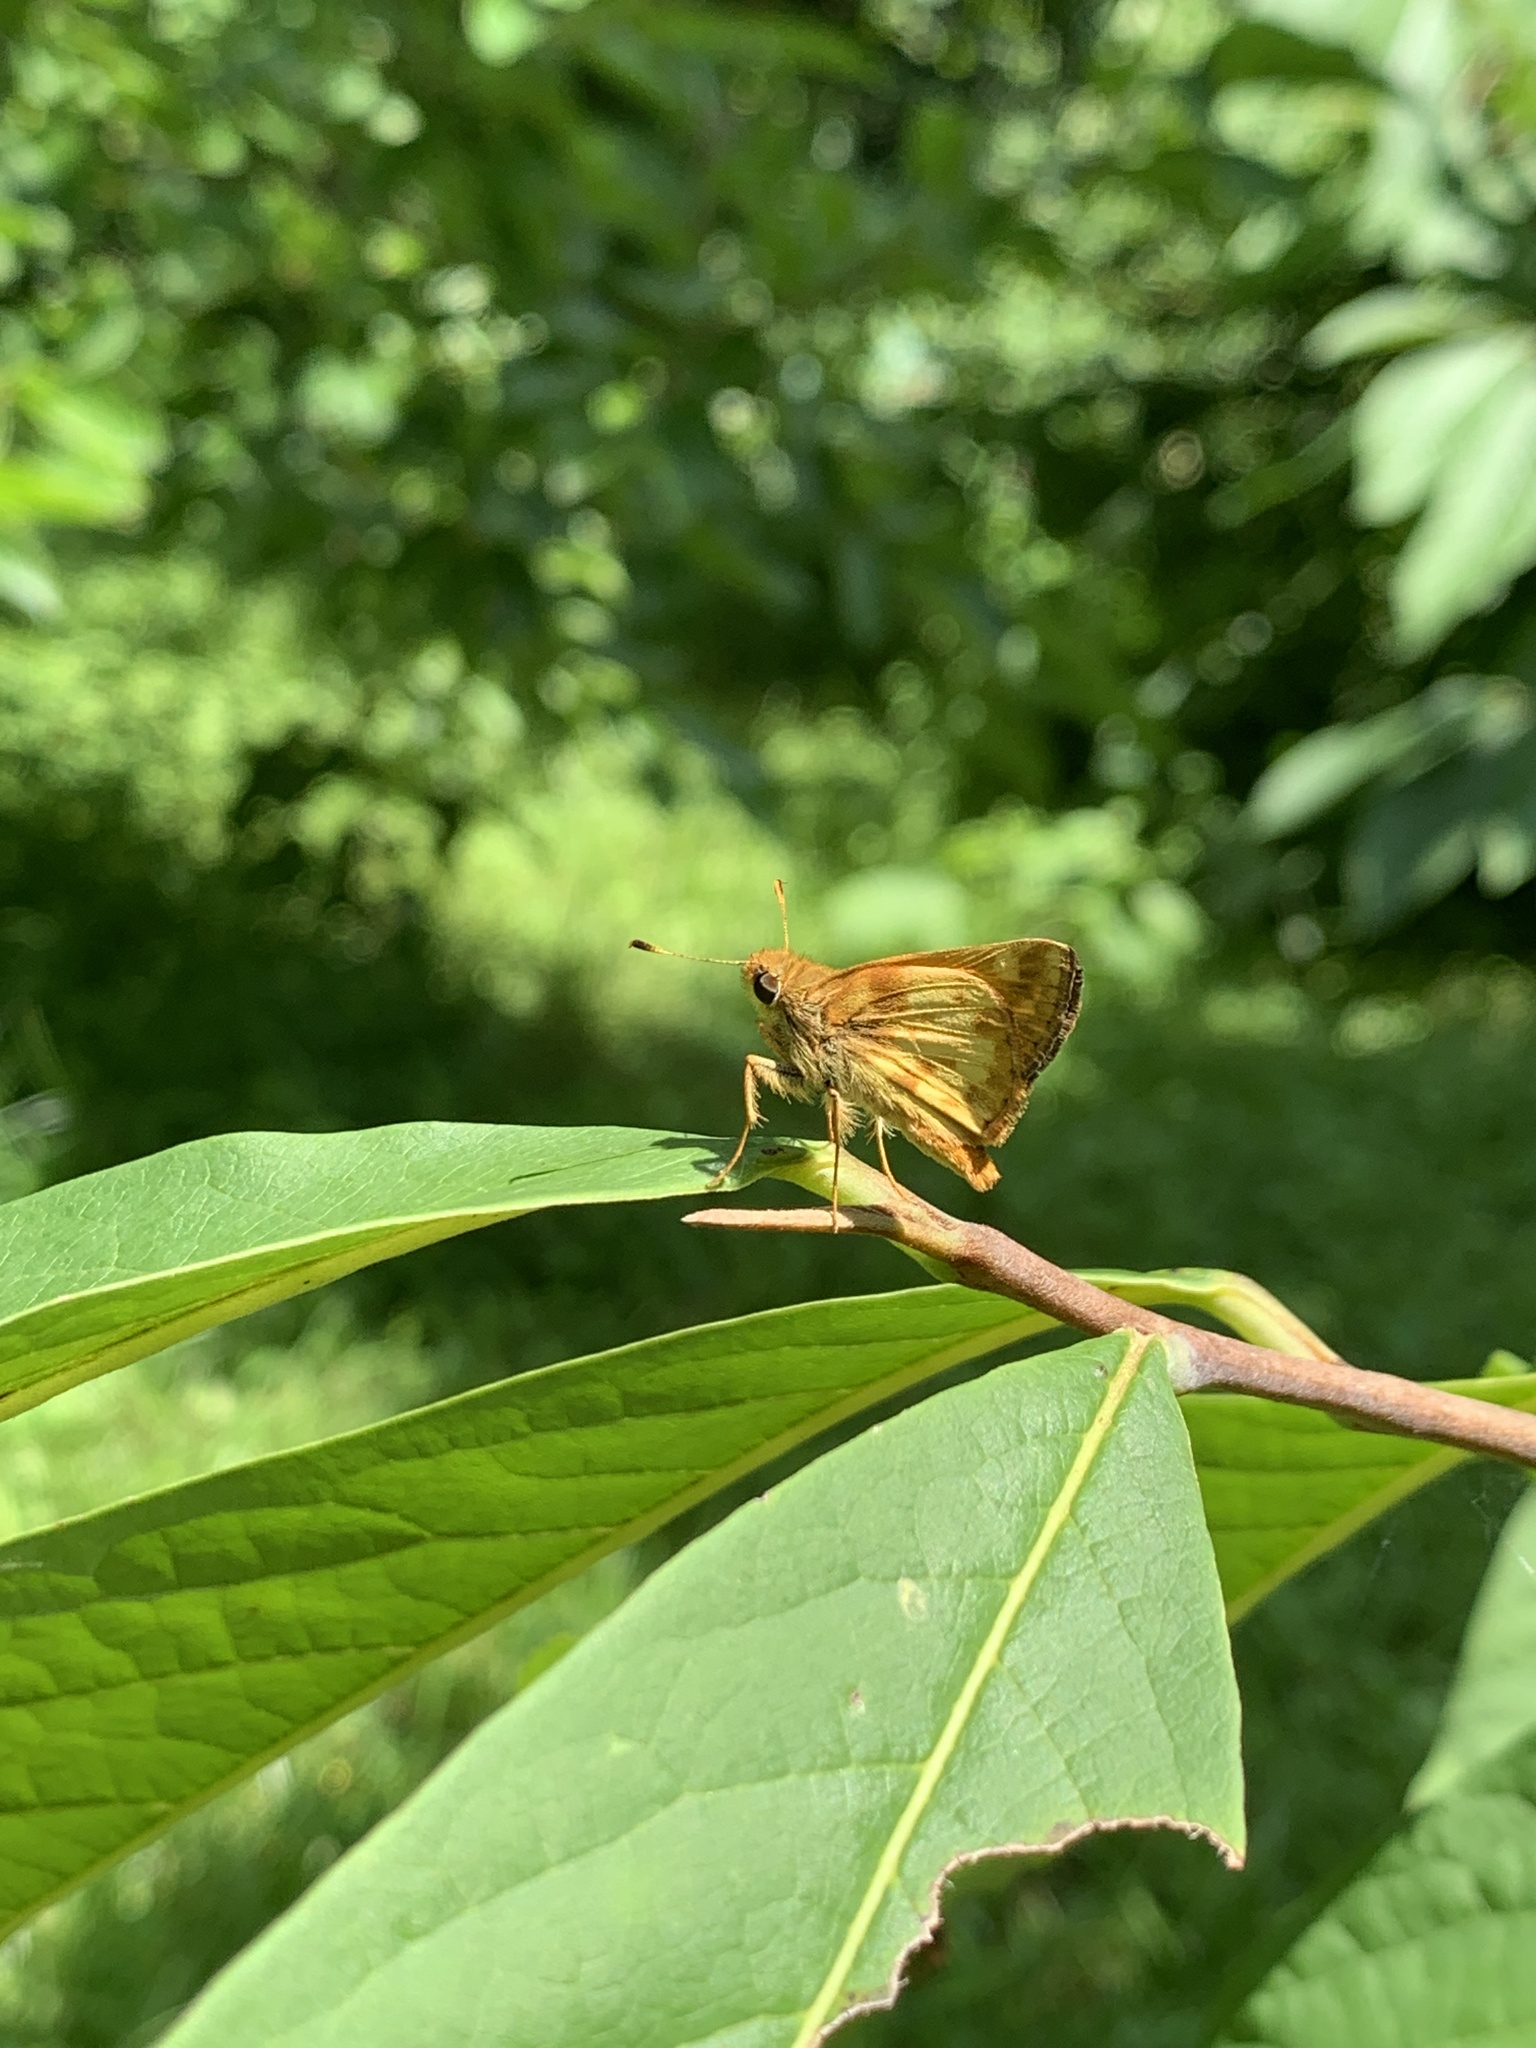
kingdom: Animalia
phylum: Arthropoda
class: Insecta
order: Lepidoptera
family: Hesperiidae
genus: Lon
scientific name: Lon zabulon
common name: Zabulon skipper
